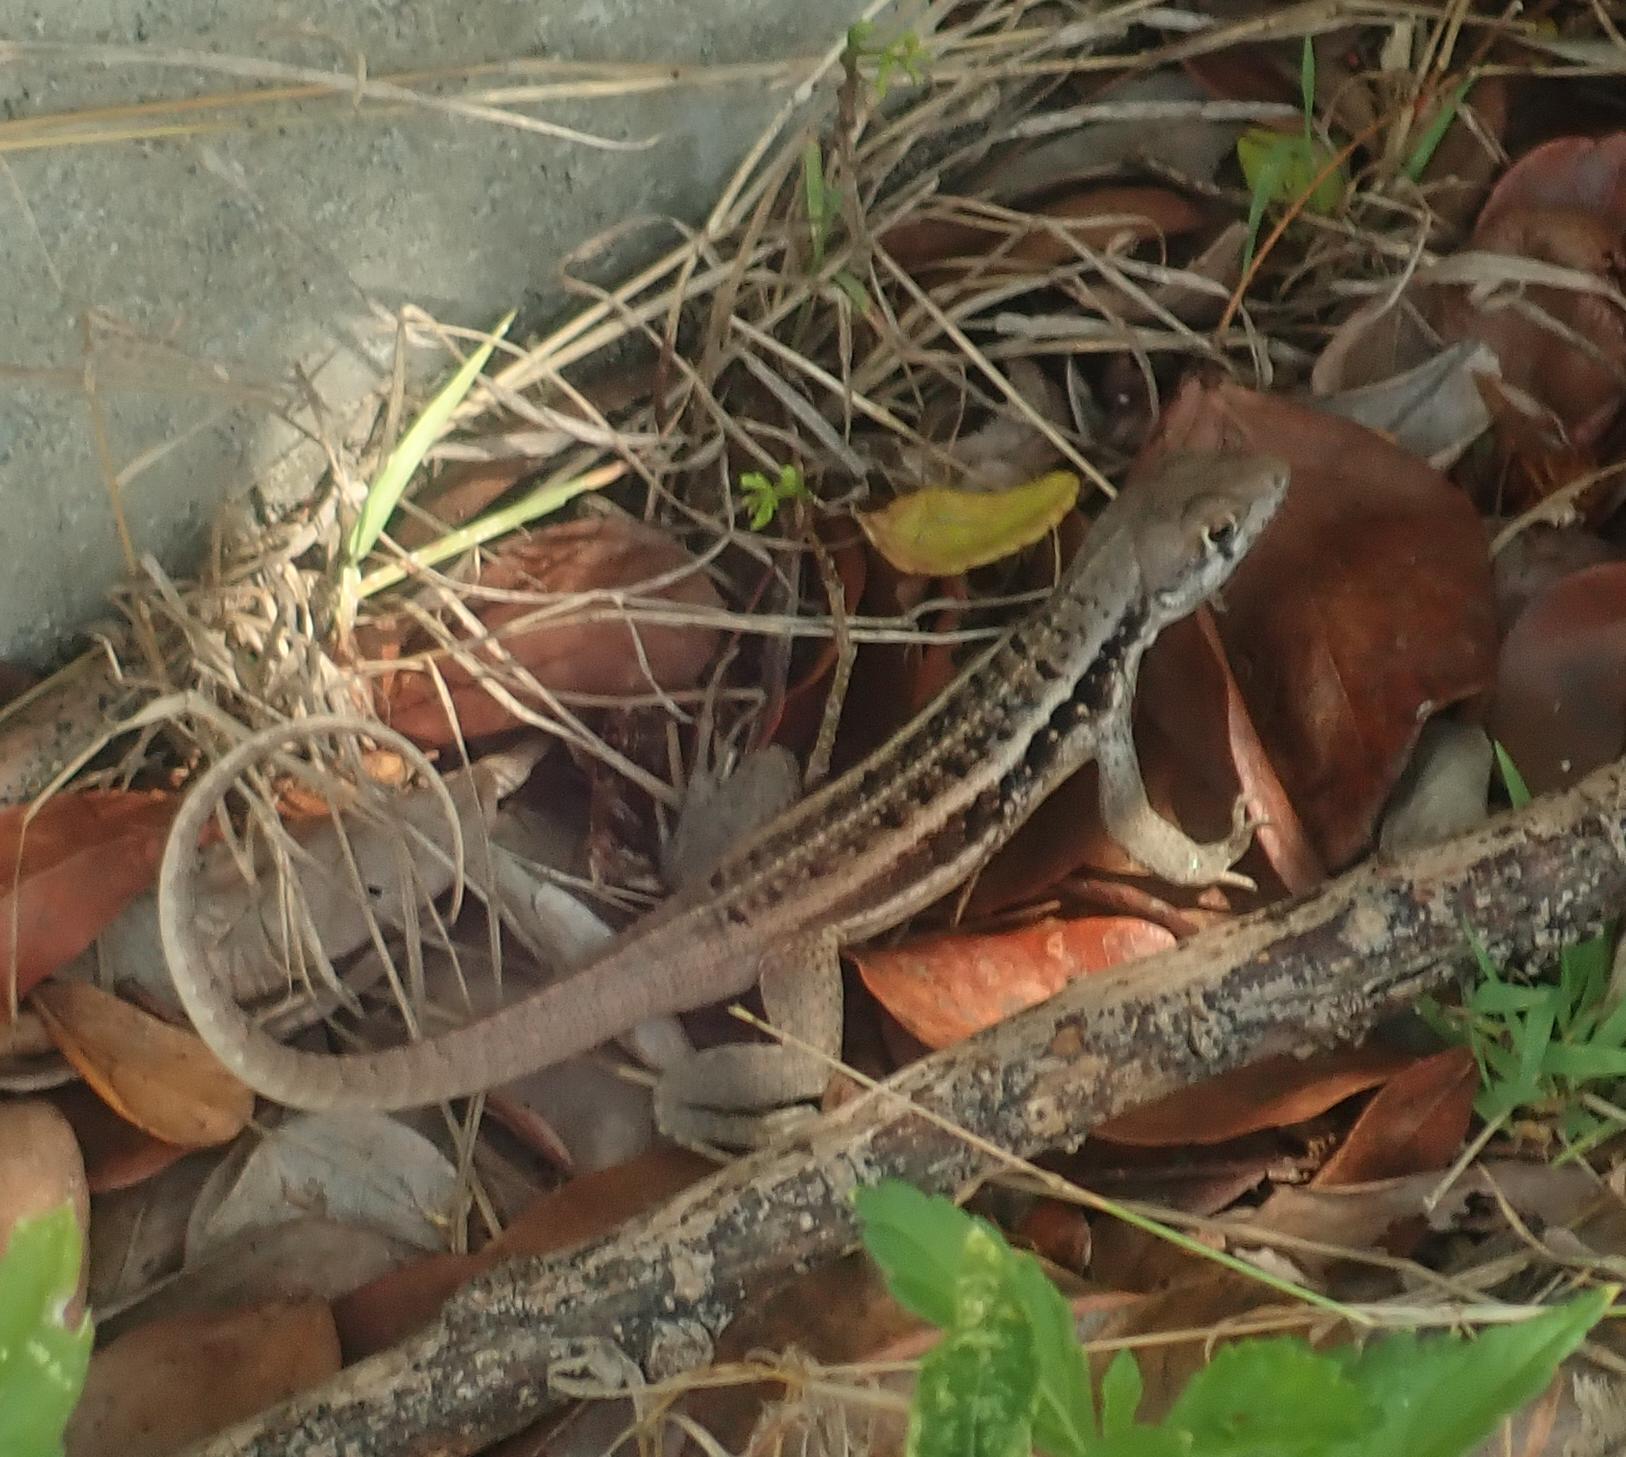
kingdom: Animalia
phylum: Chordata
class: Squamata
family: Leiocephalidae
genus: Leiocephalus
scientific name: Leiocephalus psammodromus
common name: Bastion cay curlytail lizard
